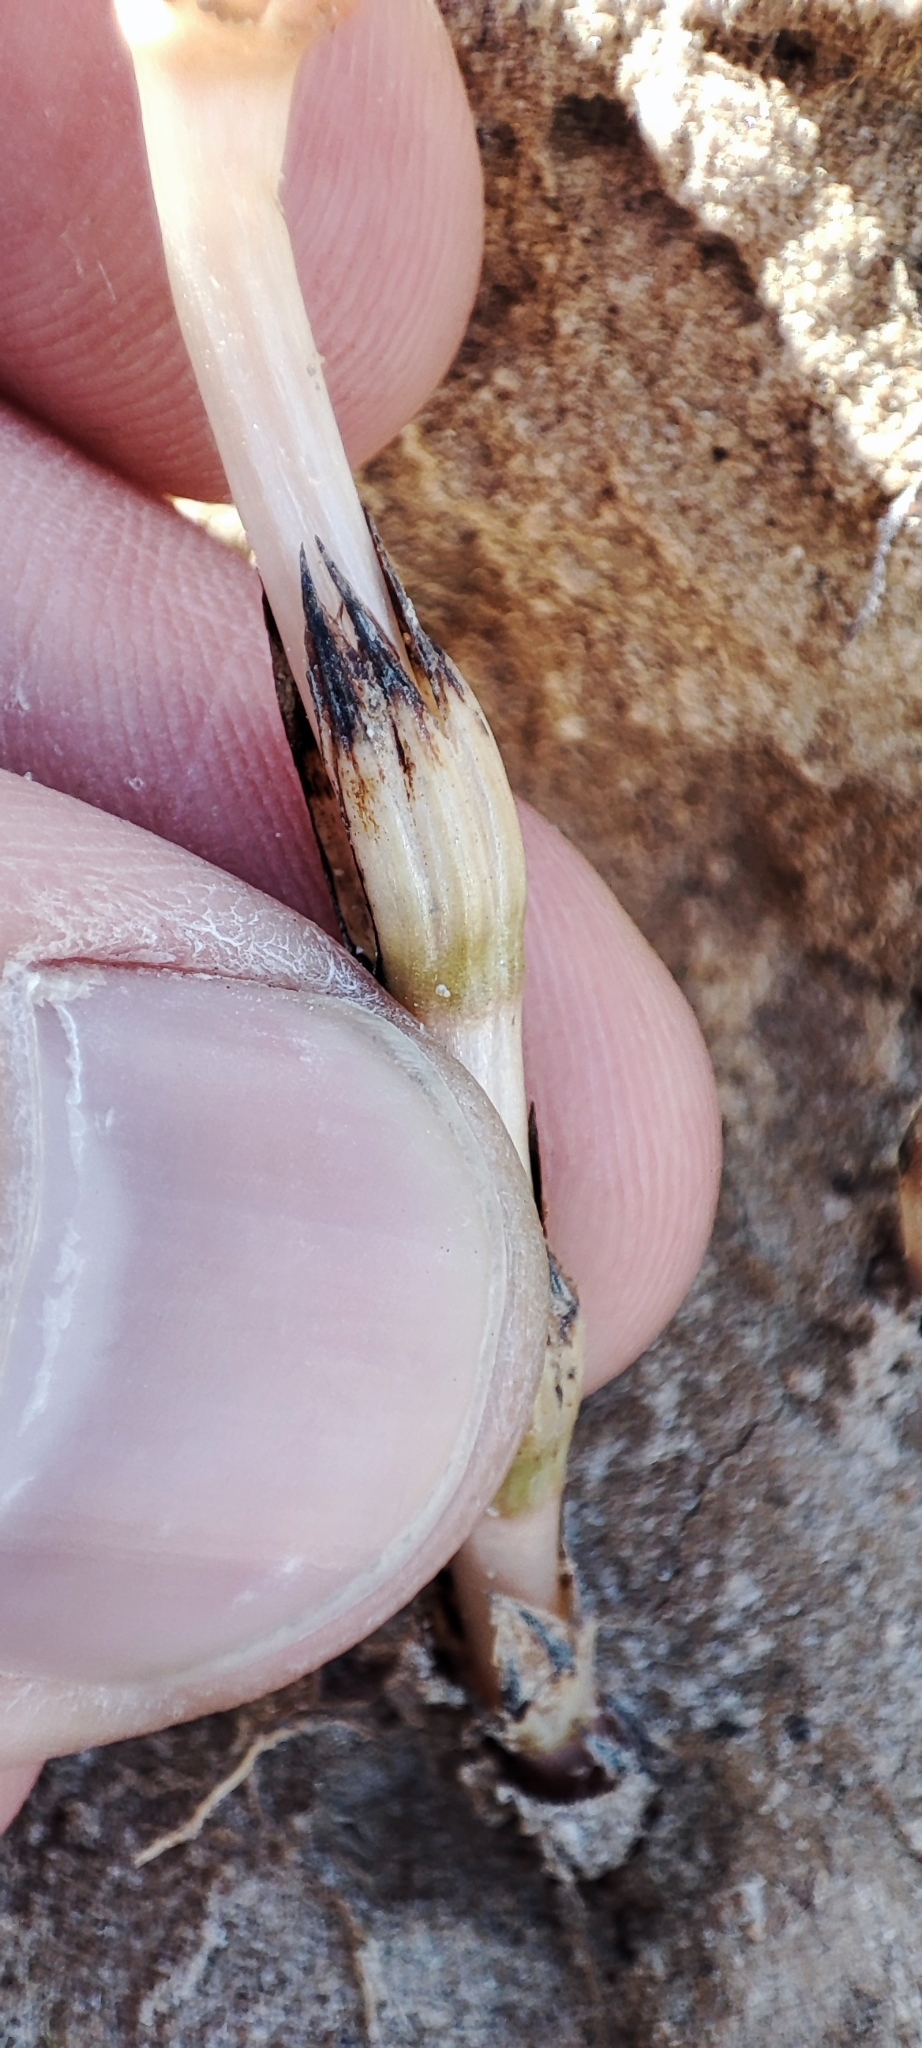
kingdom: Plantae
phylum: Tracheophyta
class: Polypodiopsida
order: Equisetales
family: Equisetaceae
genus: Equisetum
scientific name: Equisetum arvense
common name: Field horsetail
